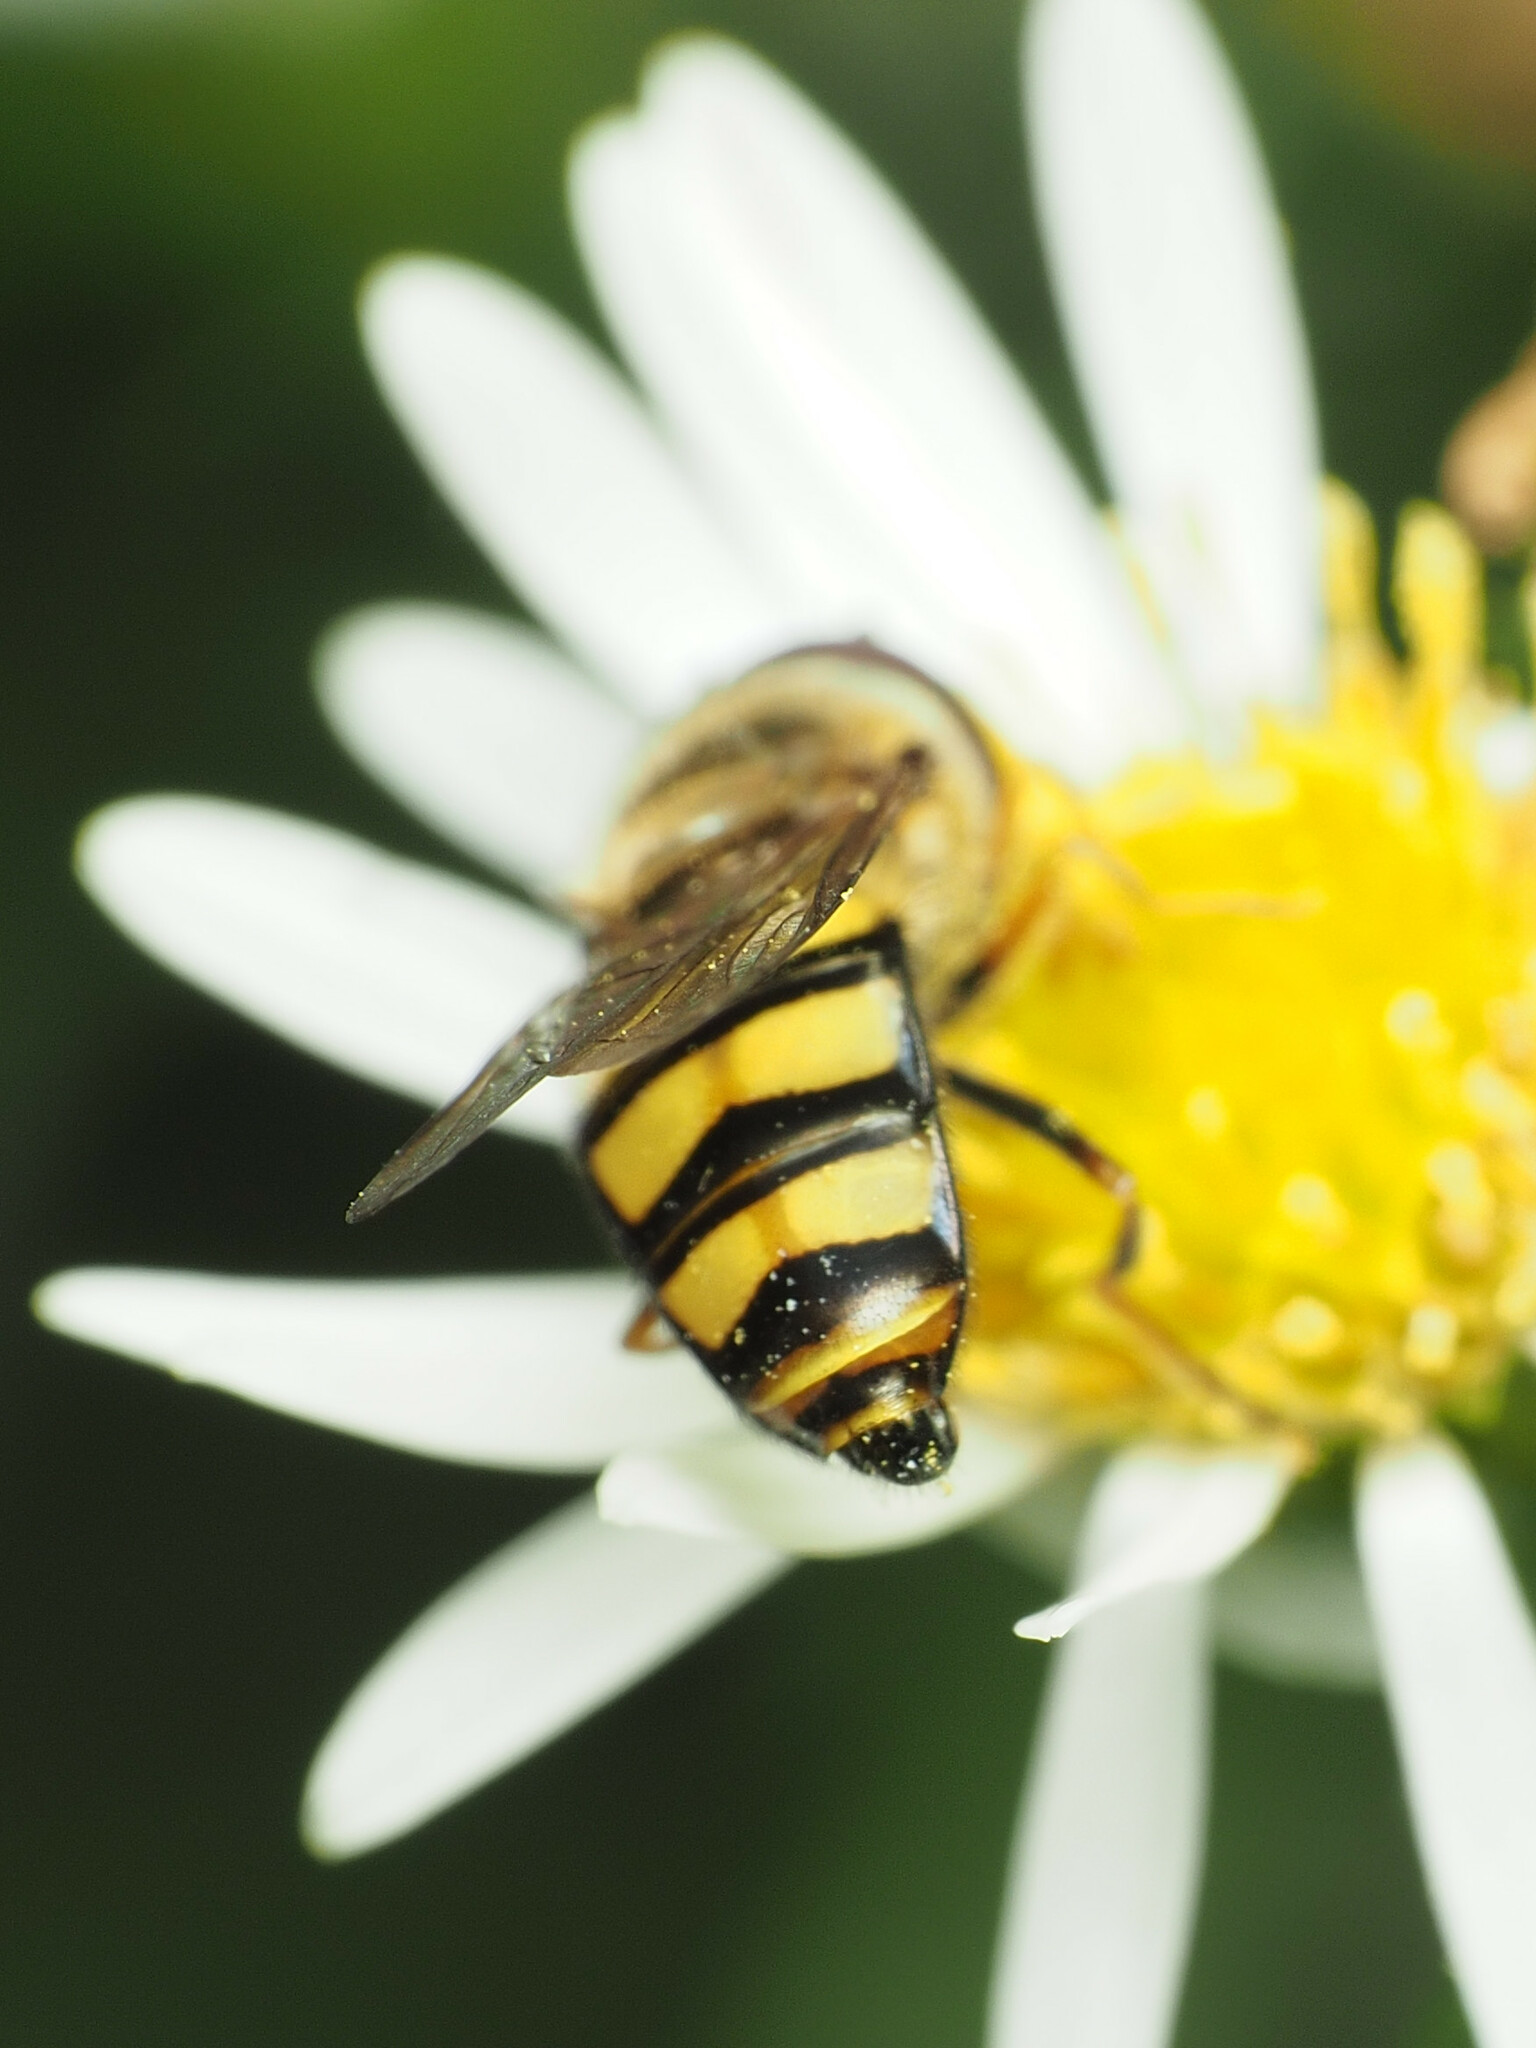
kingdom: Animalia
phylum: Arthropoda
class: Insecta
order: Diptera
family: Syrphidae
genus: Eupeodes
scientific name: Eupeodes
